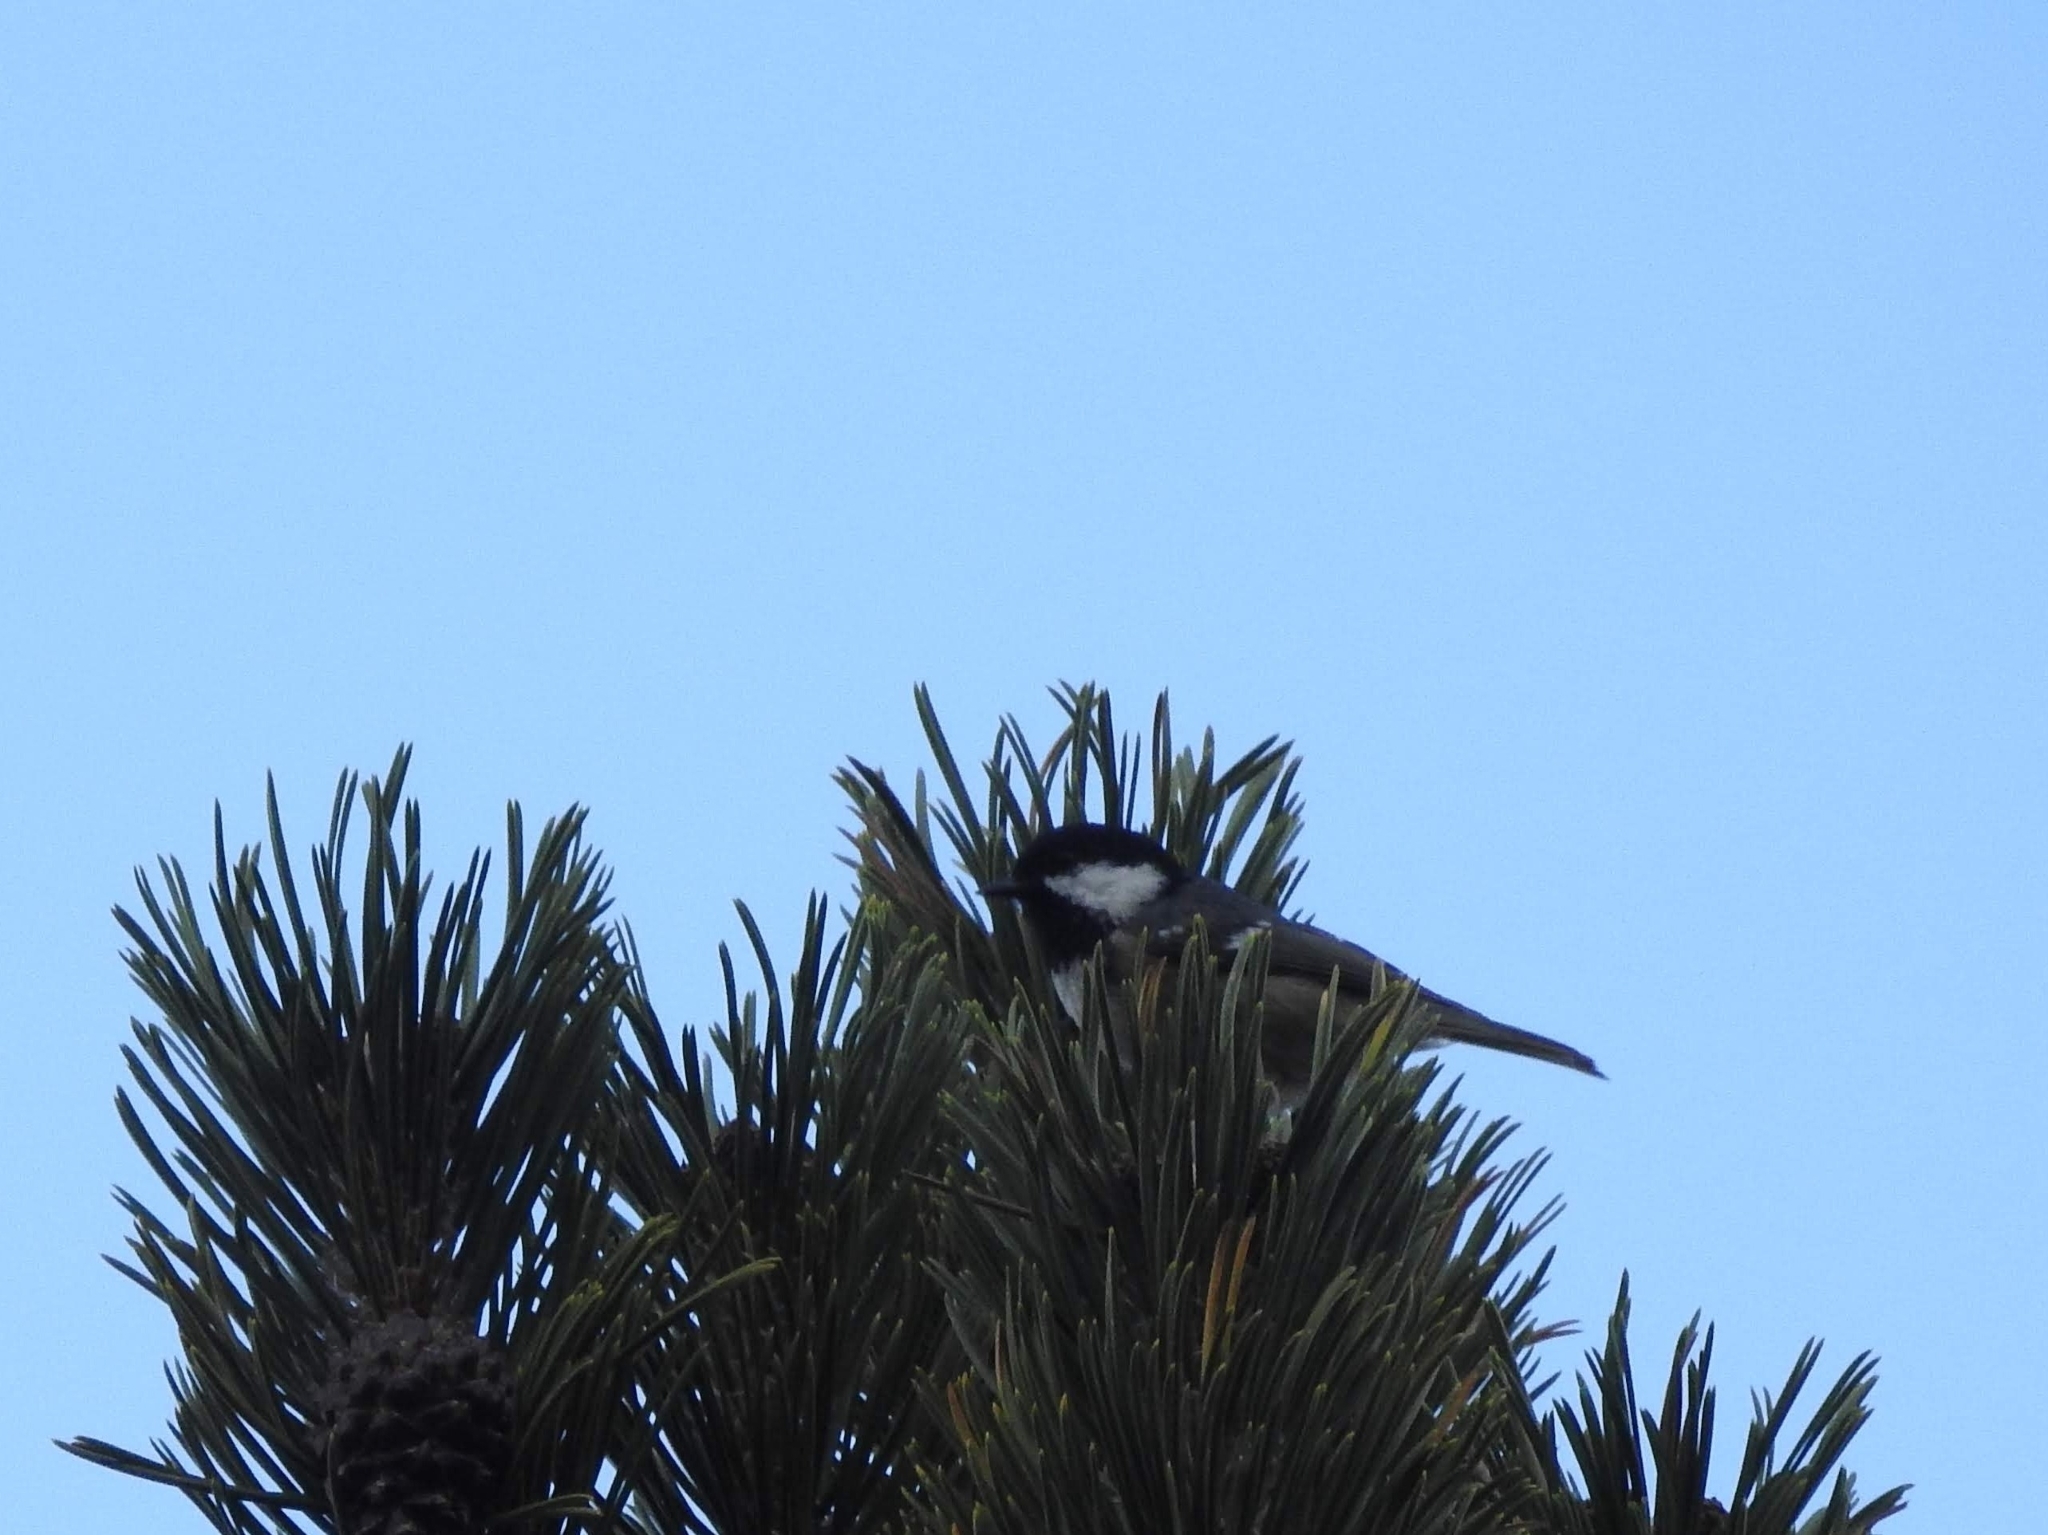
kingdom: Animalia
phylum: Chordata
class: Aves
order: Passeriformes
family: Paridae
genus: Periparus
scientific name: Periparus ater
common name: Coal tit
